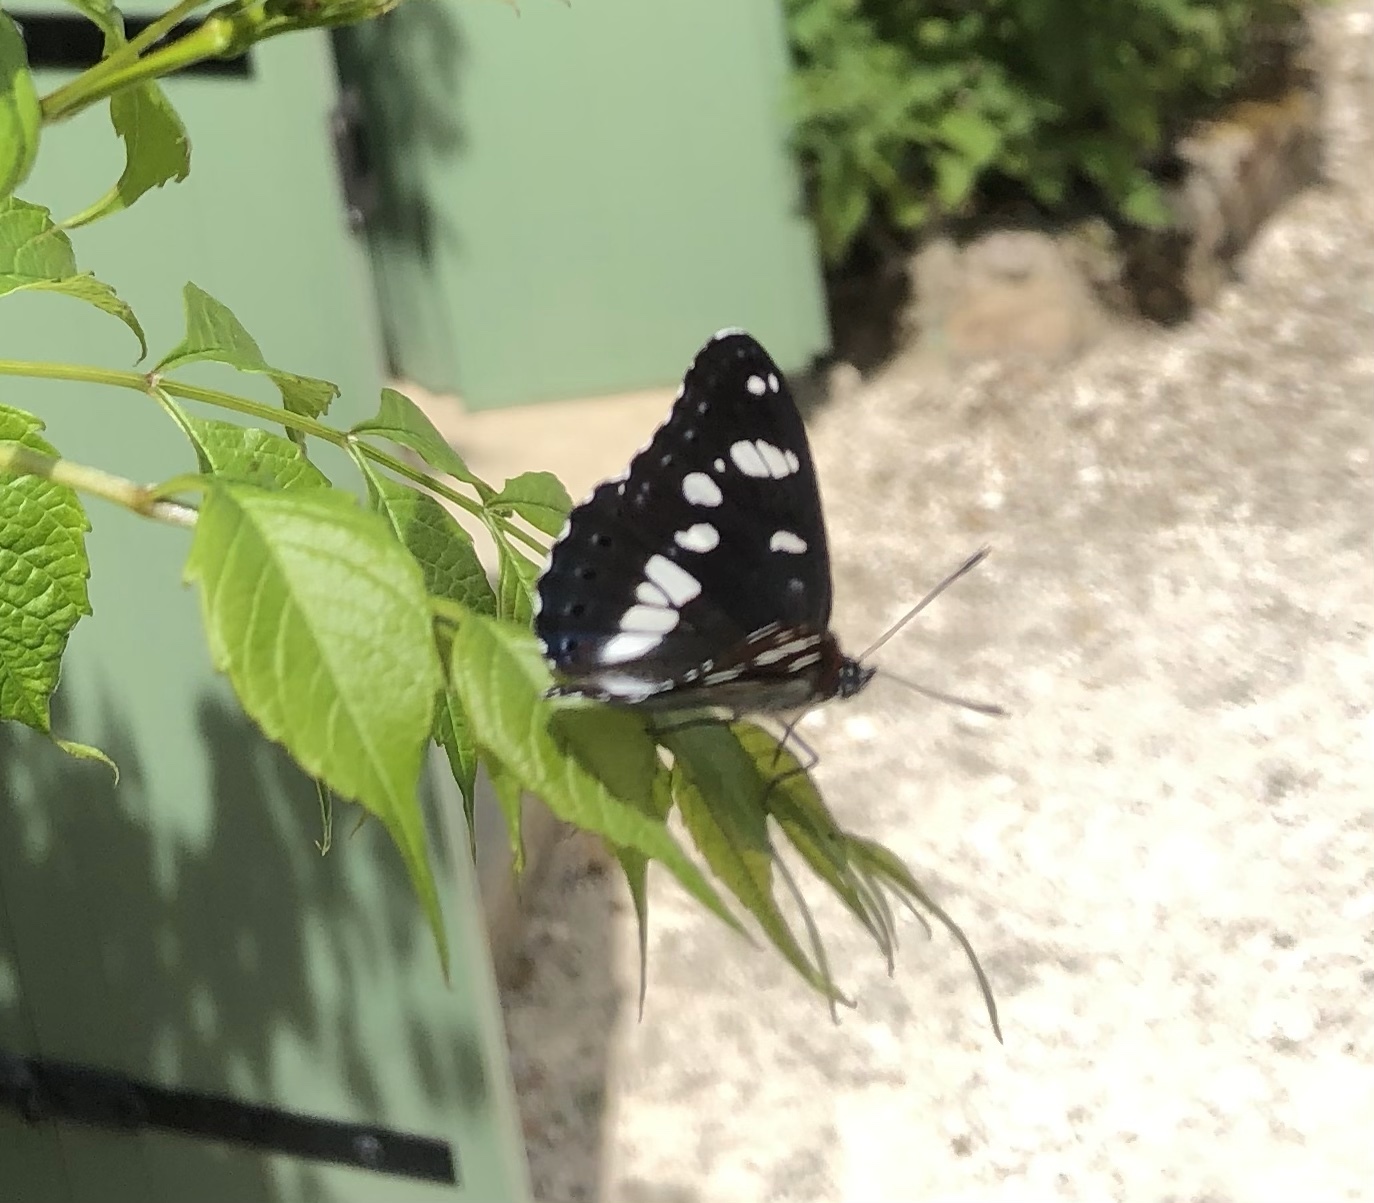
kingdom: Animalia
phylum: Arthropoda
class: Insecta
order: Lepidoptera
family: Nymphalidae
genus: Limenitis
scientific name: Limenitis reducta
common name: Southern white admiral
